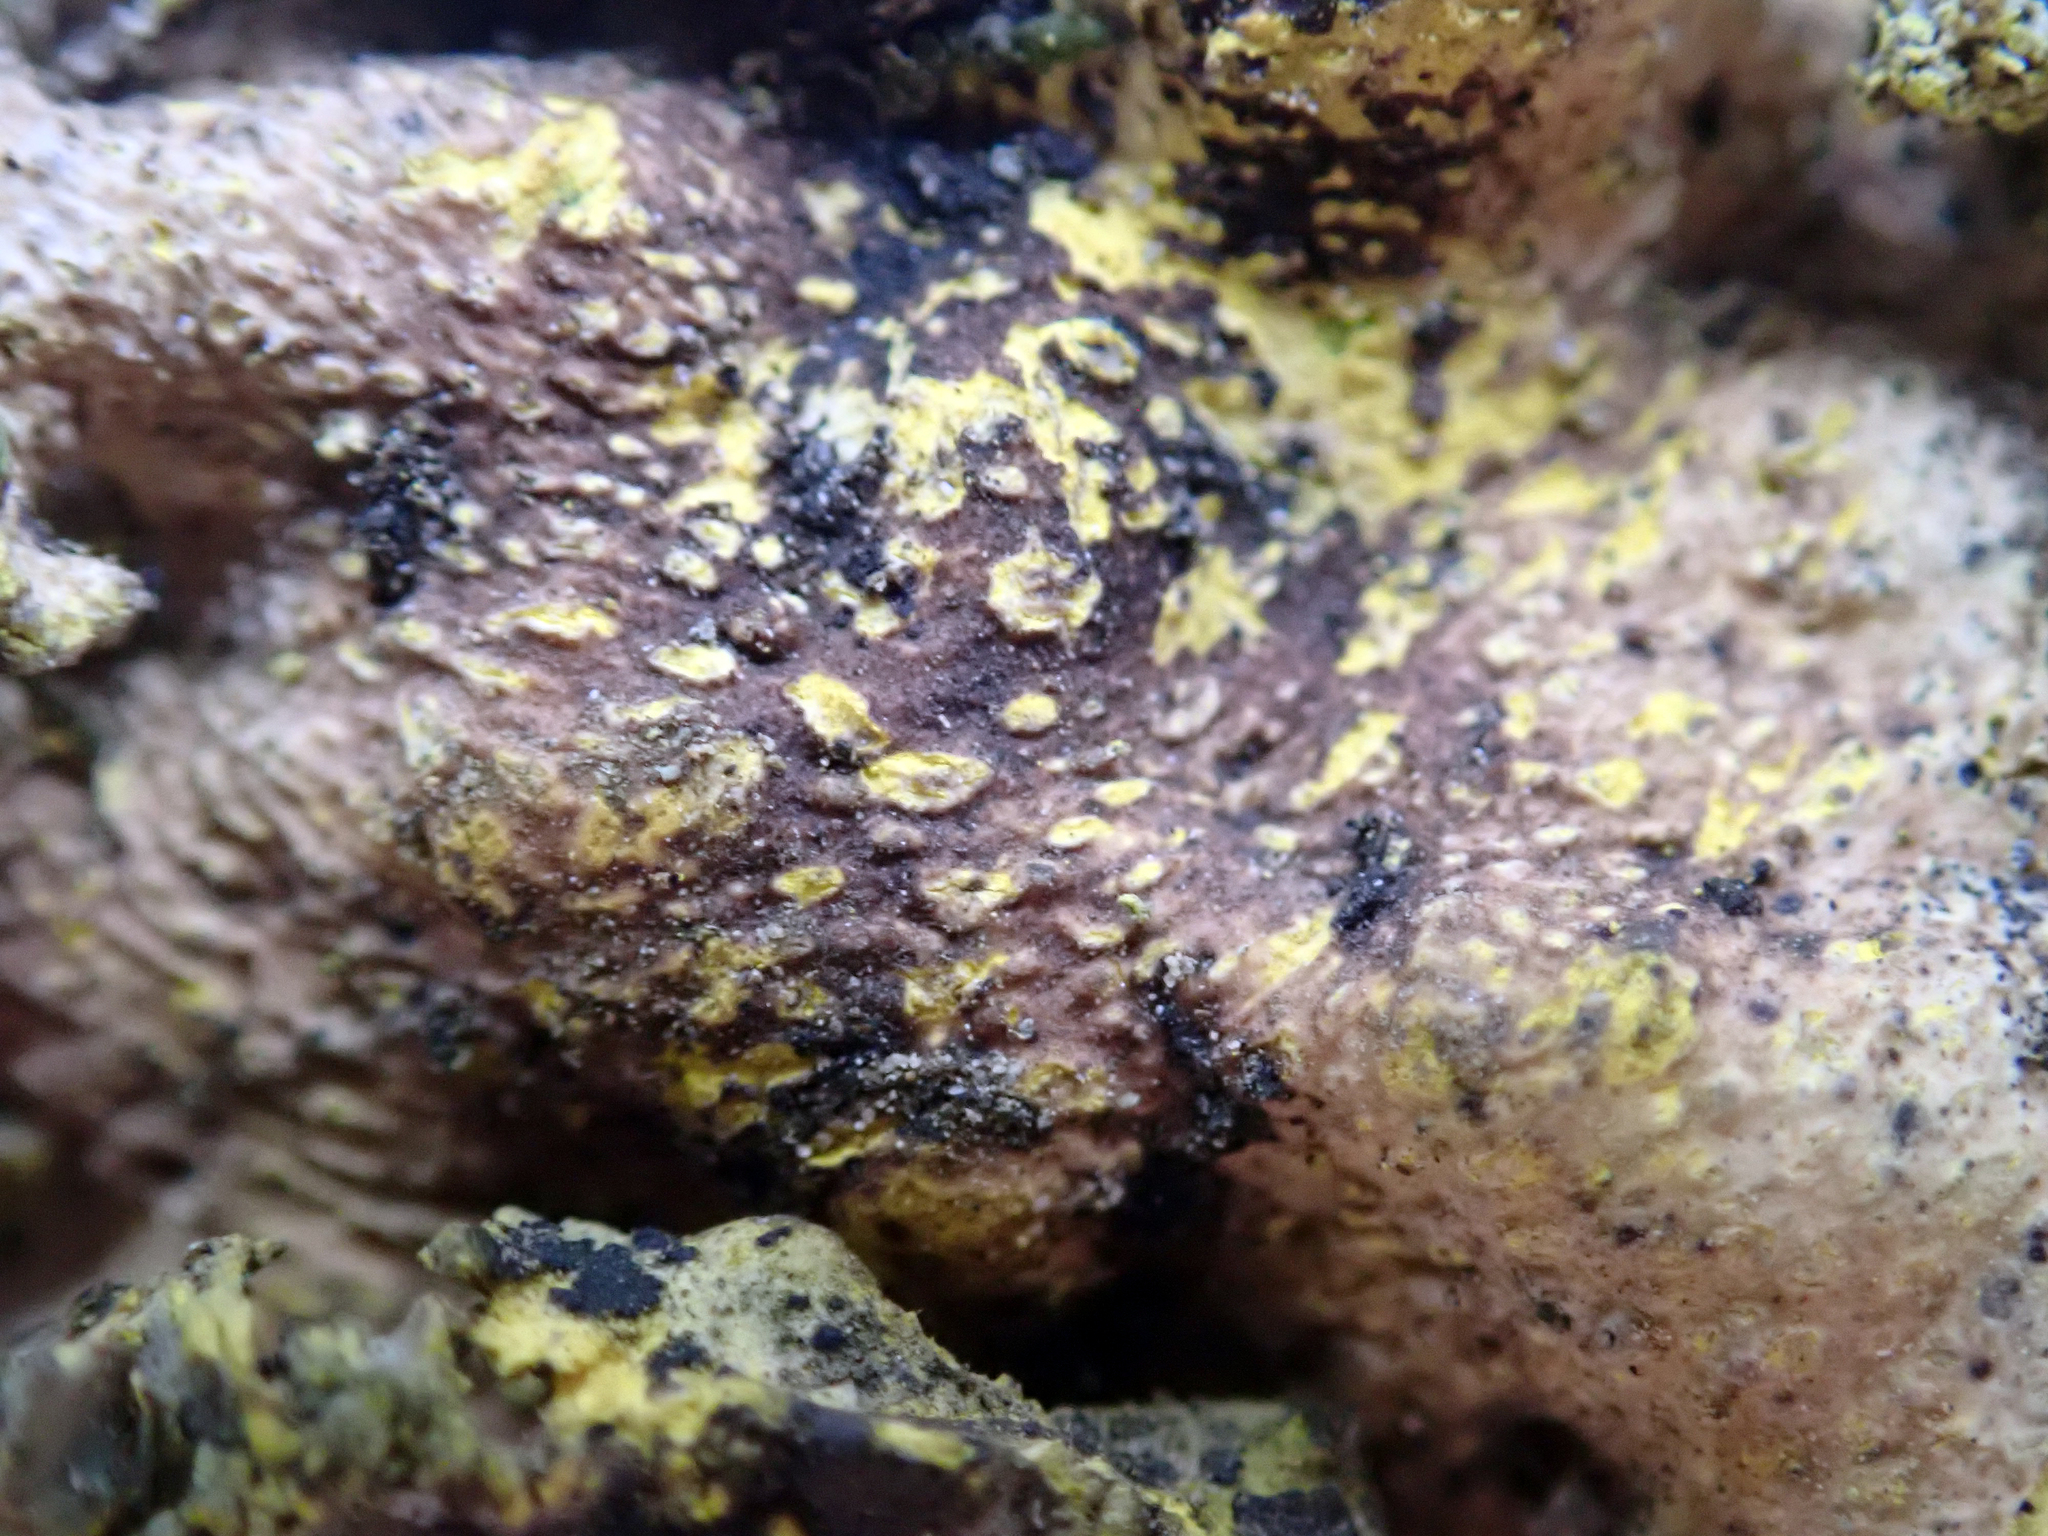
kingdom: Fungi
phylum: Ascomycota
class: Lecanoromycetes
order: Peltigerales
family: Lobariaceae
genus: Crocodia
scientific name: Crocodia poculifera
